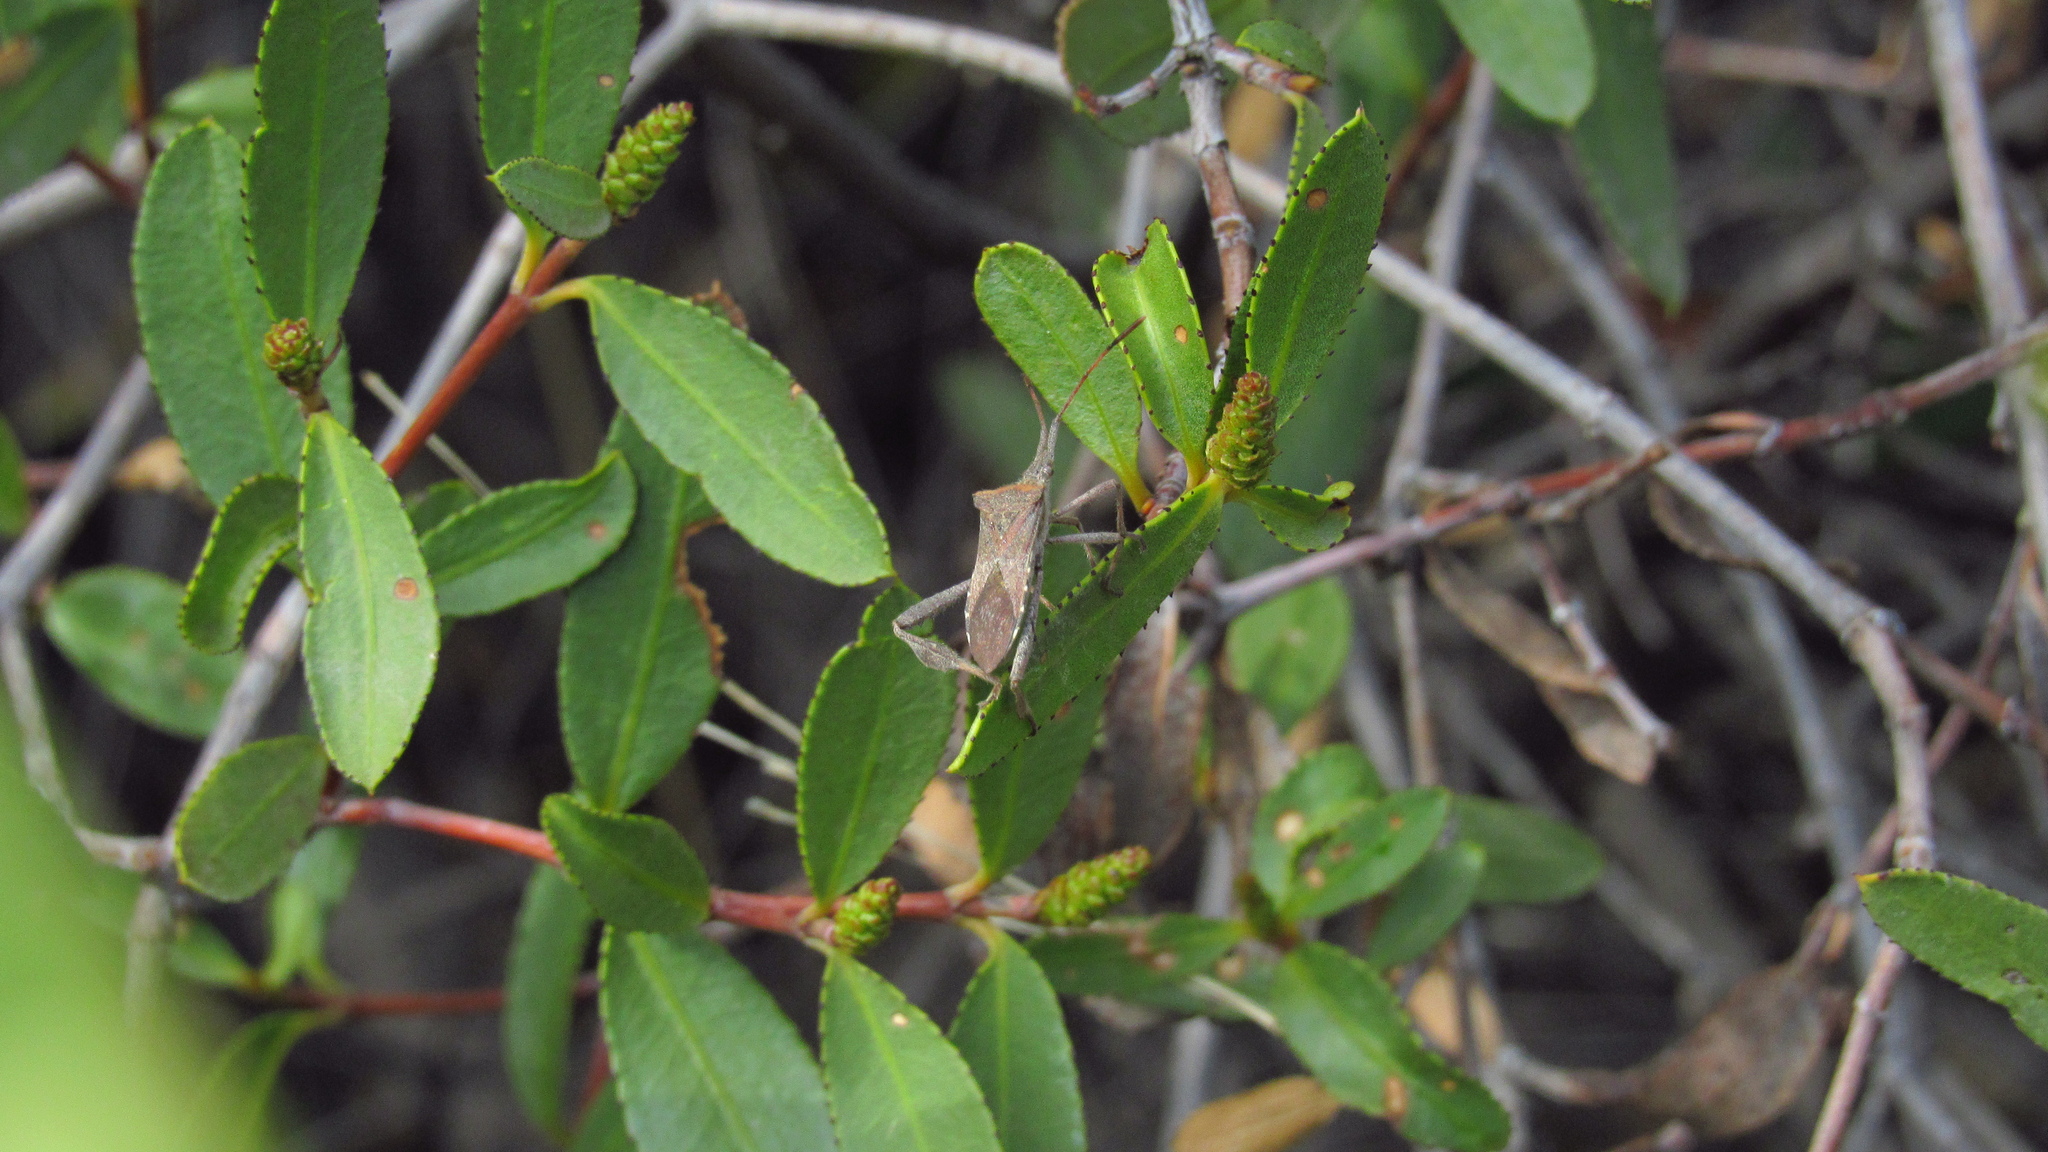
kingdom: Animalia
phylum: Arthropoda
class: Insecta
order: Hemiptera
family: Coreidae
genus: Leptoglossus
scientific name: Leptoglossus chilensis
